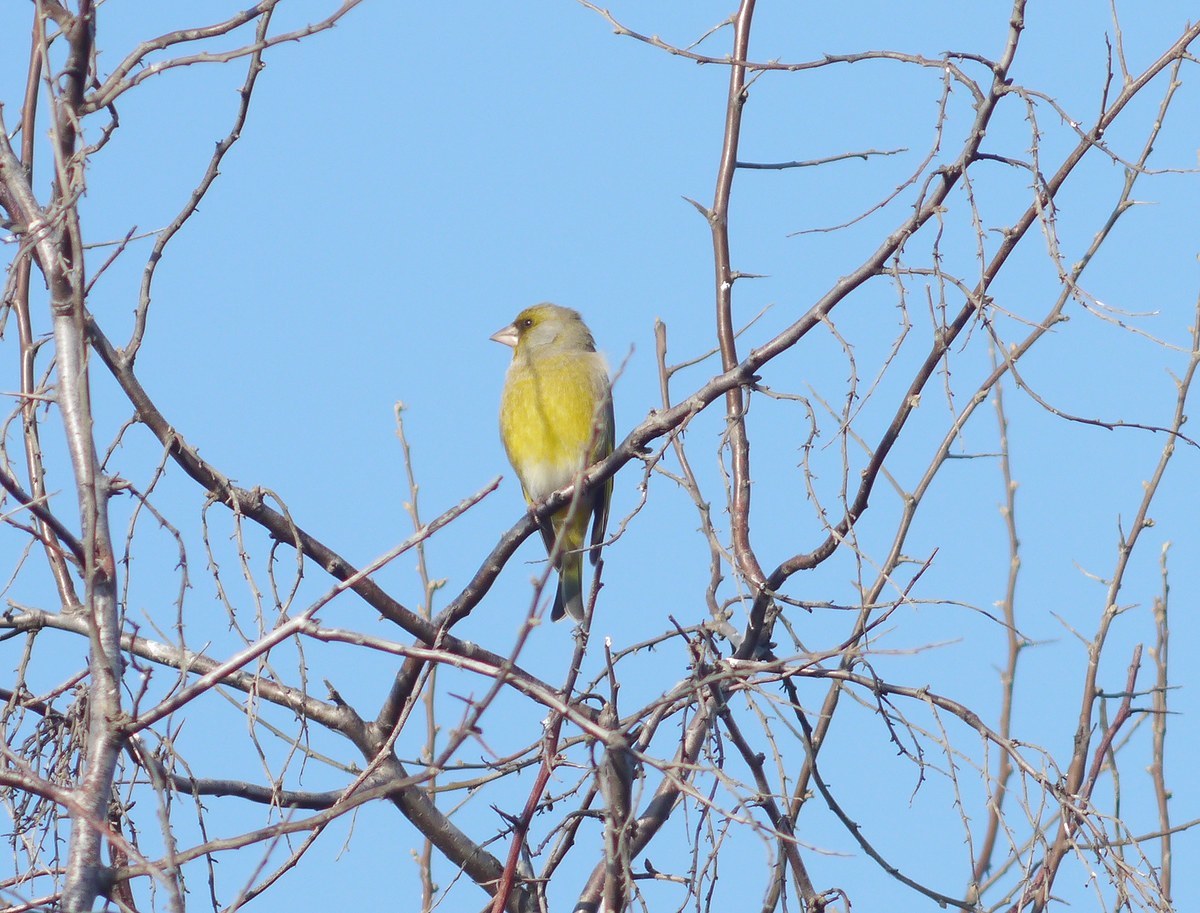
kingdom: Plantae
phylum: Tracheophyta
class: Liliopsida
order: Poales
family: Poaceae
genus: Chloris
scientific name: Chloris chloris
